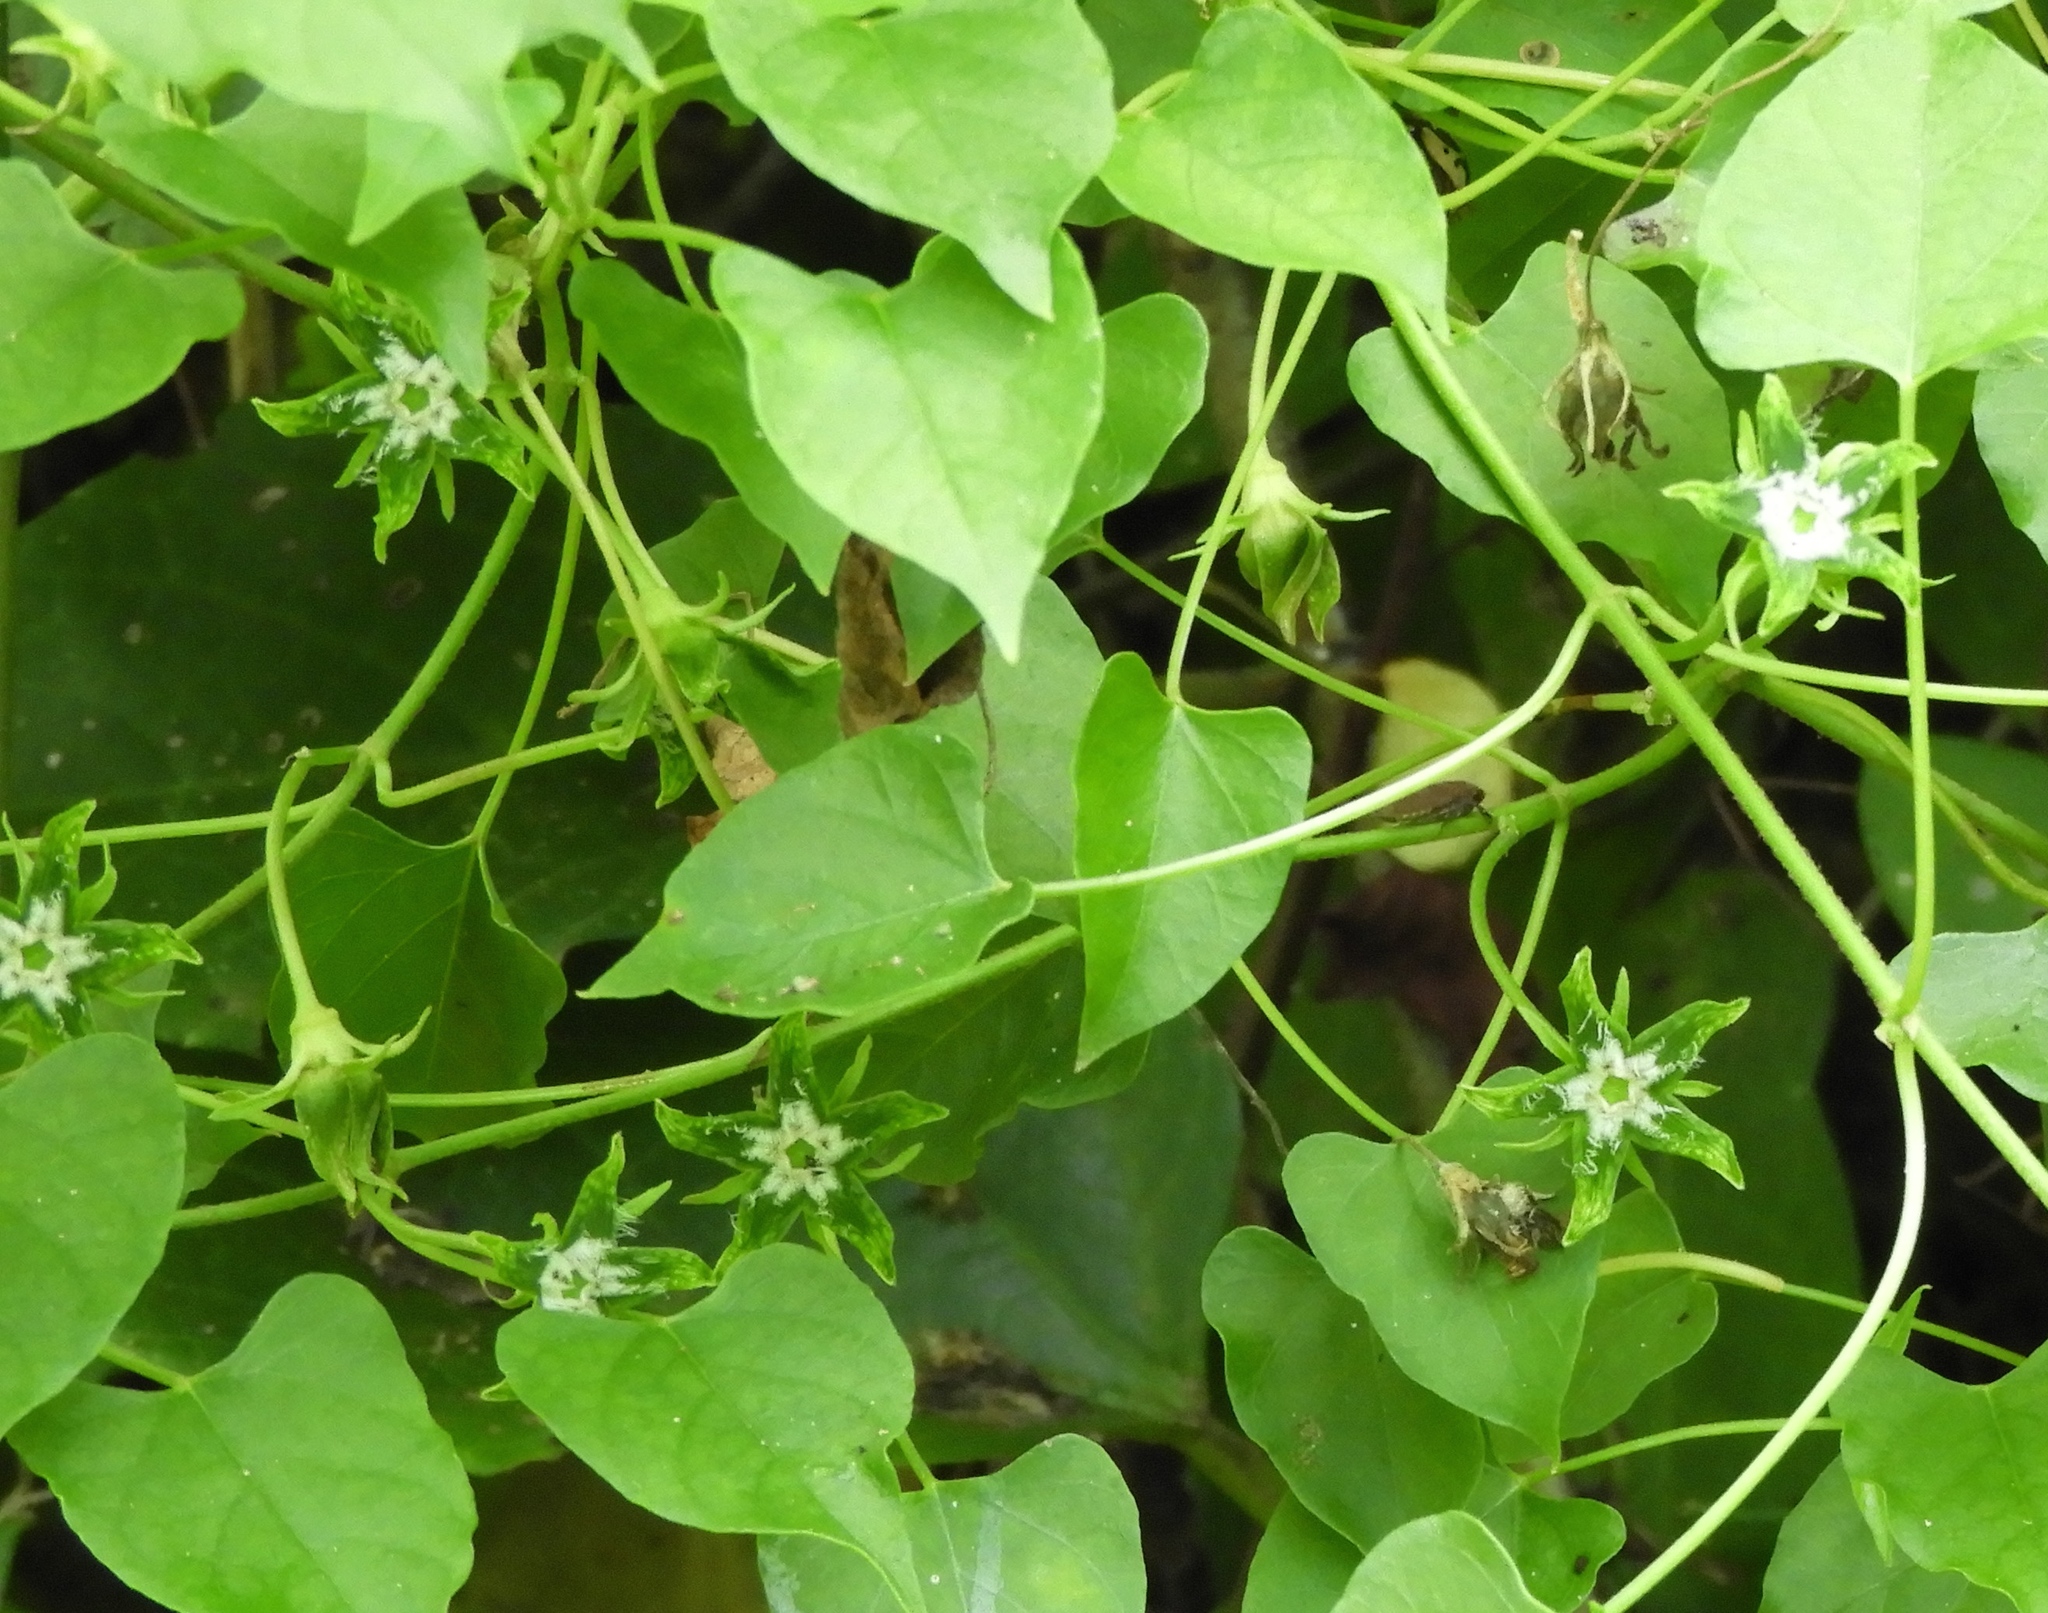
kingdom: Plantae
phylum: Tracheophyta
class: Magnoliopsida
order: Gentianales
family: Apocynaceae
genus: Gonolobus
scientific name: Gonolobus naturalistae
